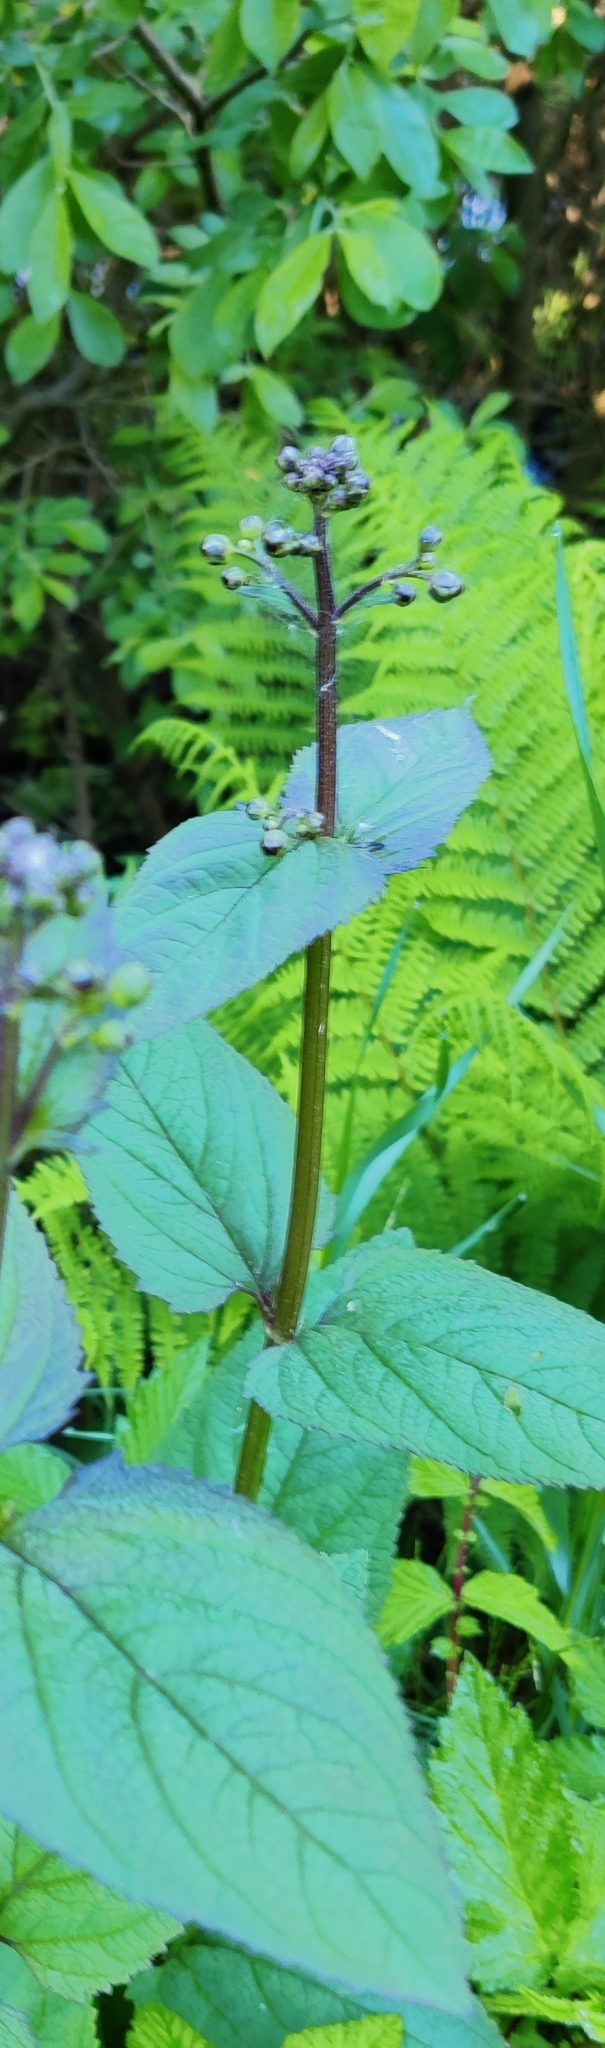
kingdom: Plantae
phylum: Tracheophyta
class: Magnoliopsida
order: Lamiales
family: Scrophulariaceae
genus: Scrophularia
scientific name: Scrophularia nodosa
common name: Common figwort
